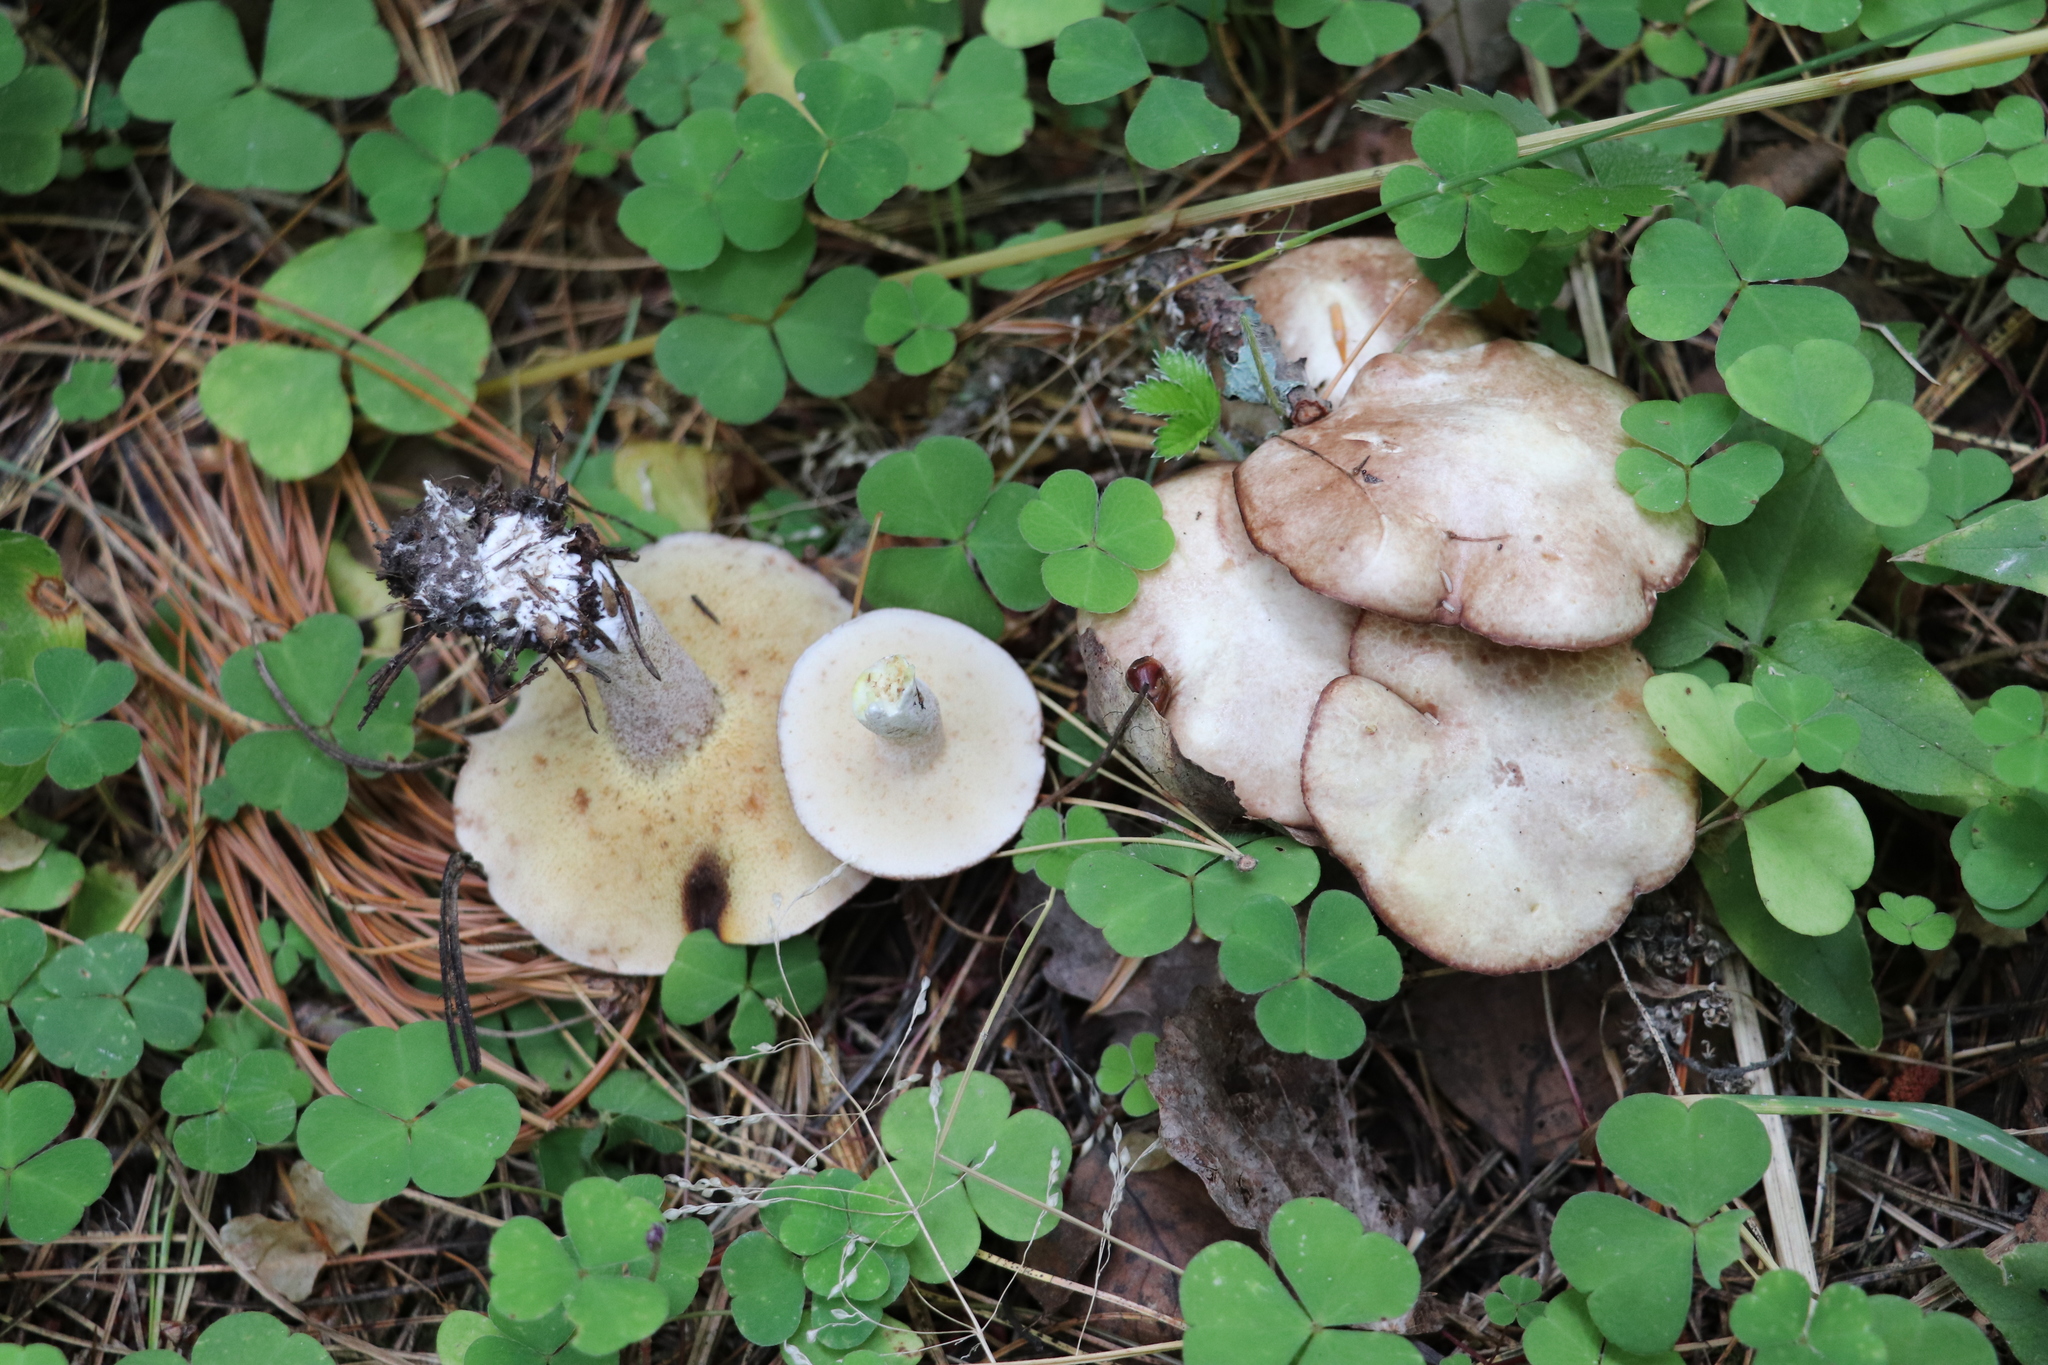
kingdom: Fungi
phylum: Basidiomycota
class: Agaricomycetes
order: Boletales
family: Suillaceae
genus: Suillus
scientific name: Suillus placidus
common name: Slippery white bolete
